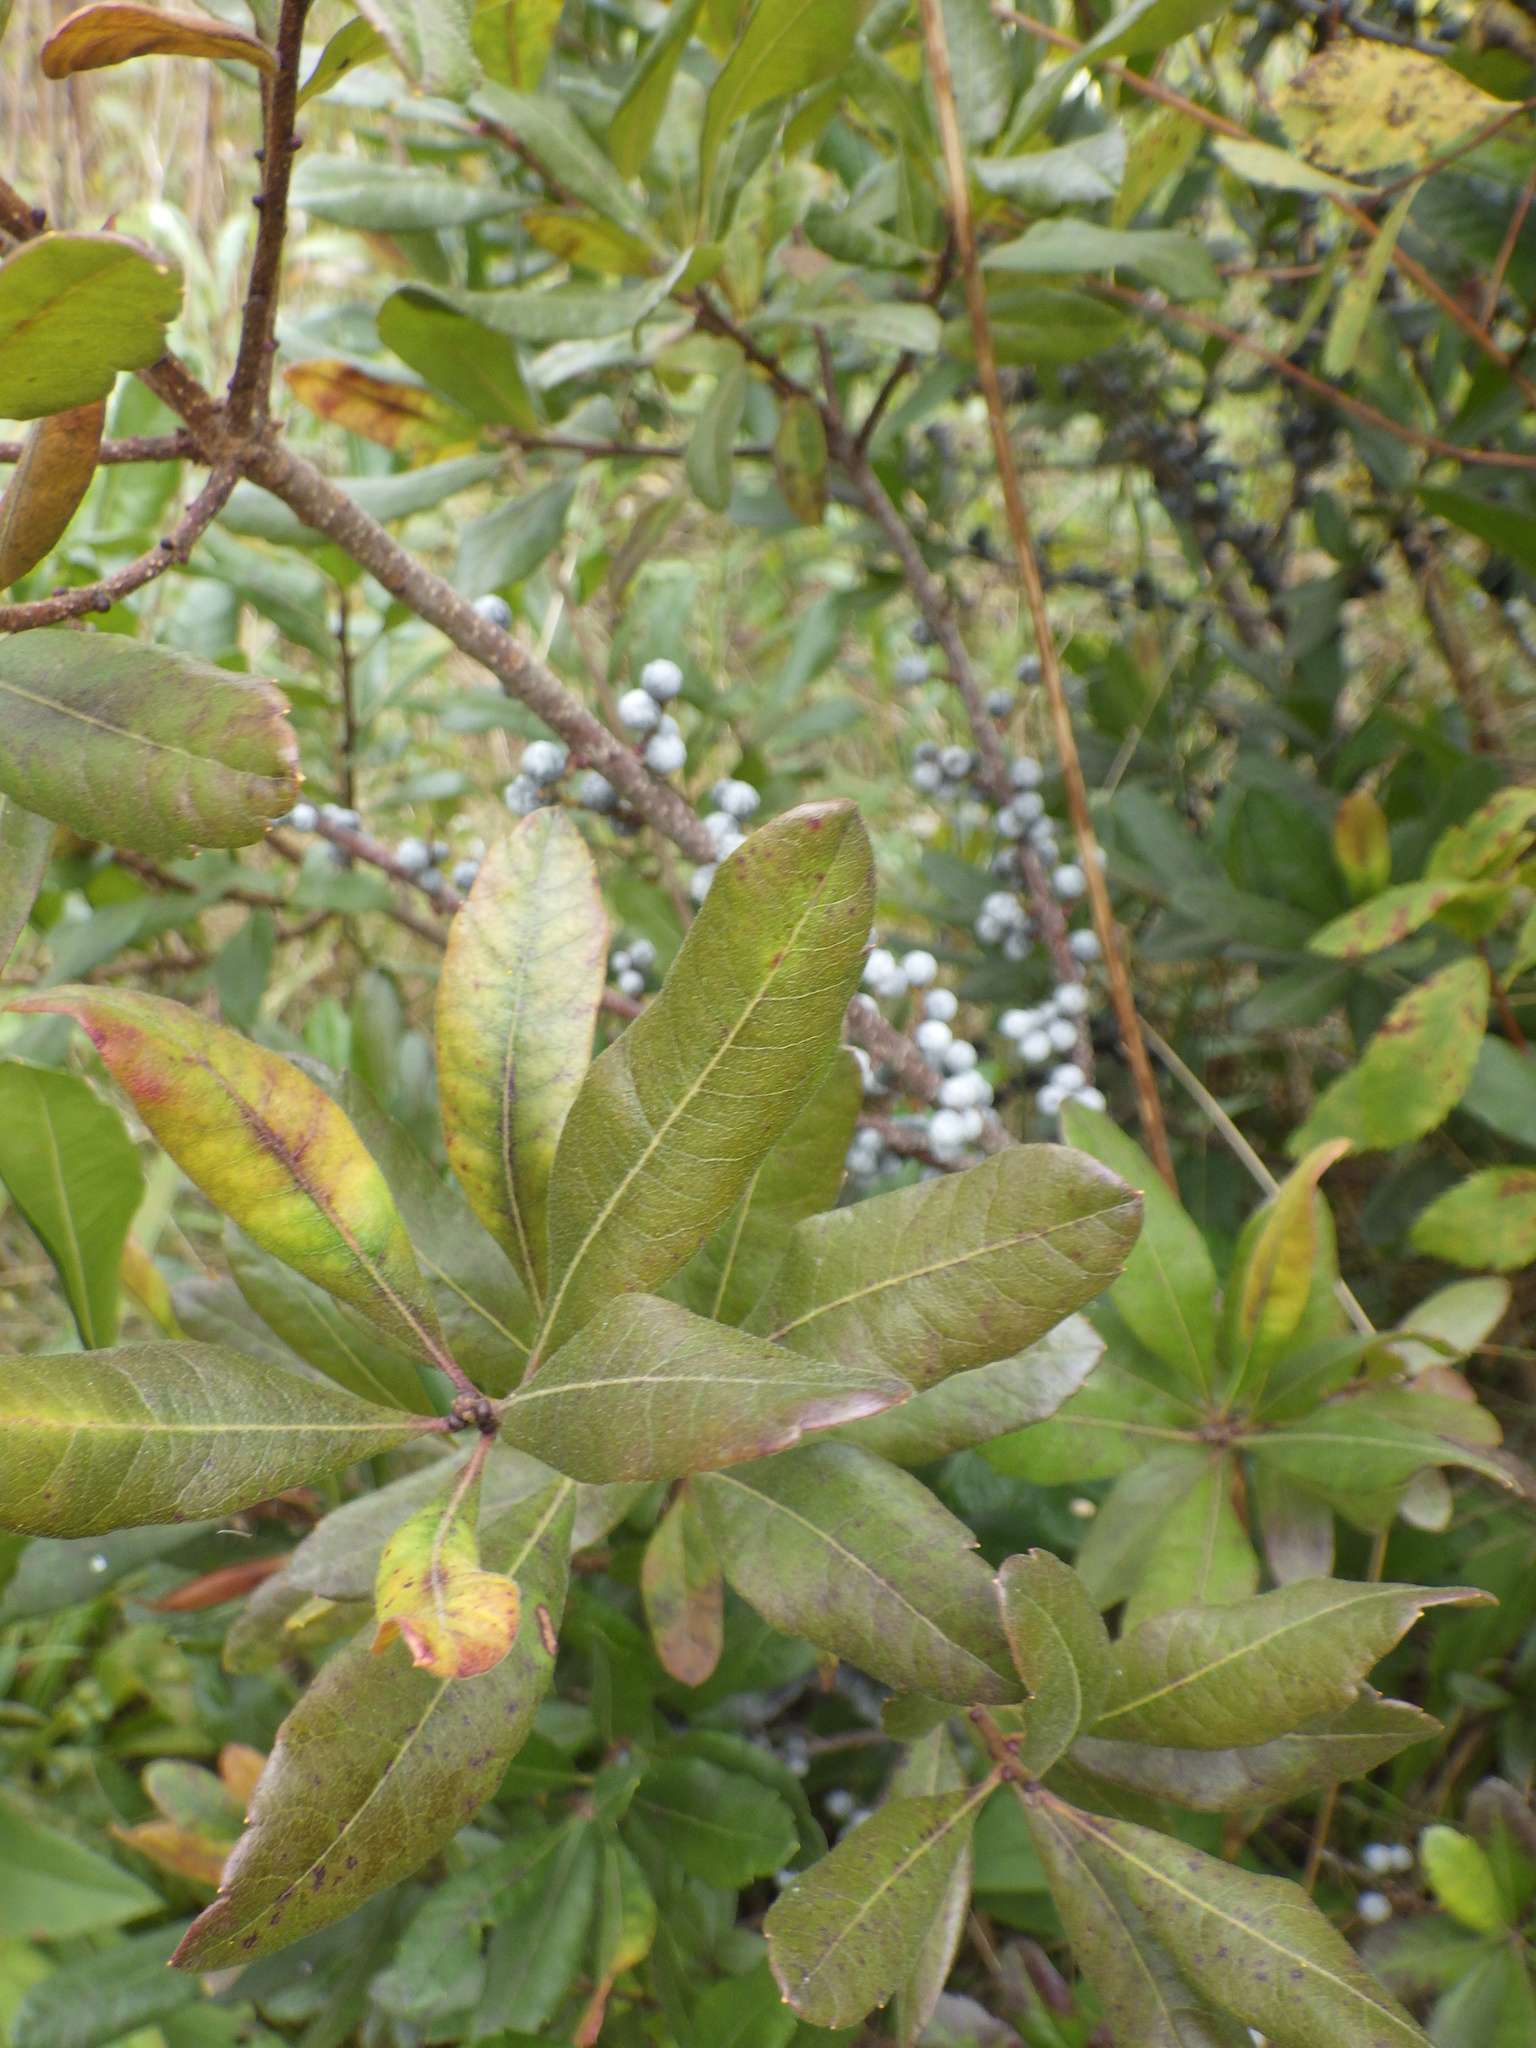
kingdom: Plantae
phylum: Tracheophyta
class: Magnoliopsida
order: Fagales
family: Myricaceae
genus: Morella
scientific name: Morella pensylvanica
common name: Northern bayberry
